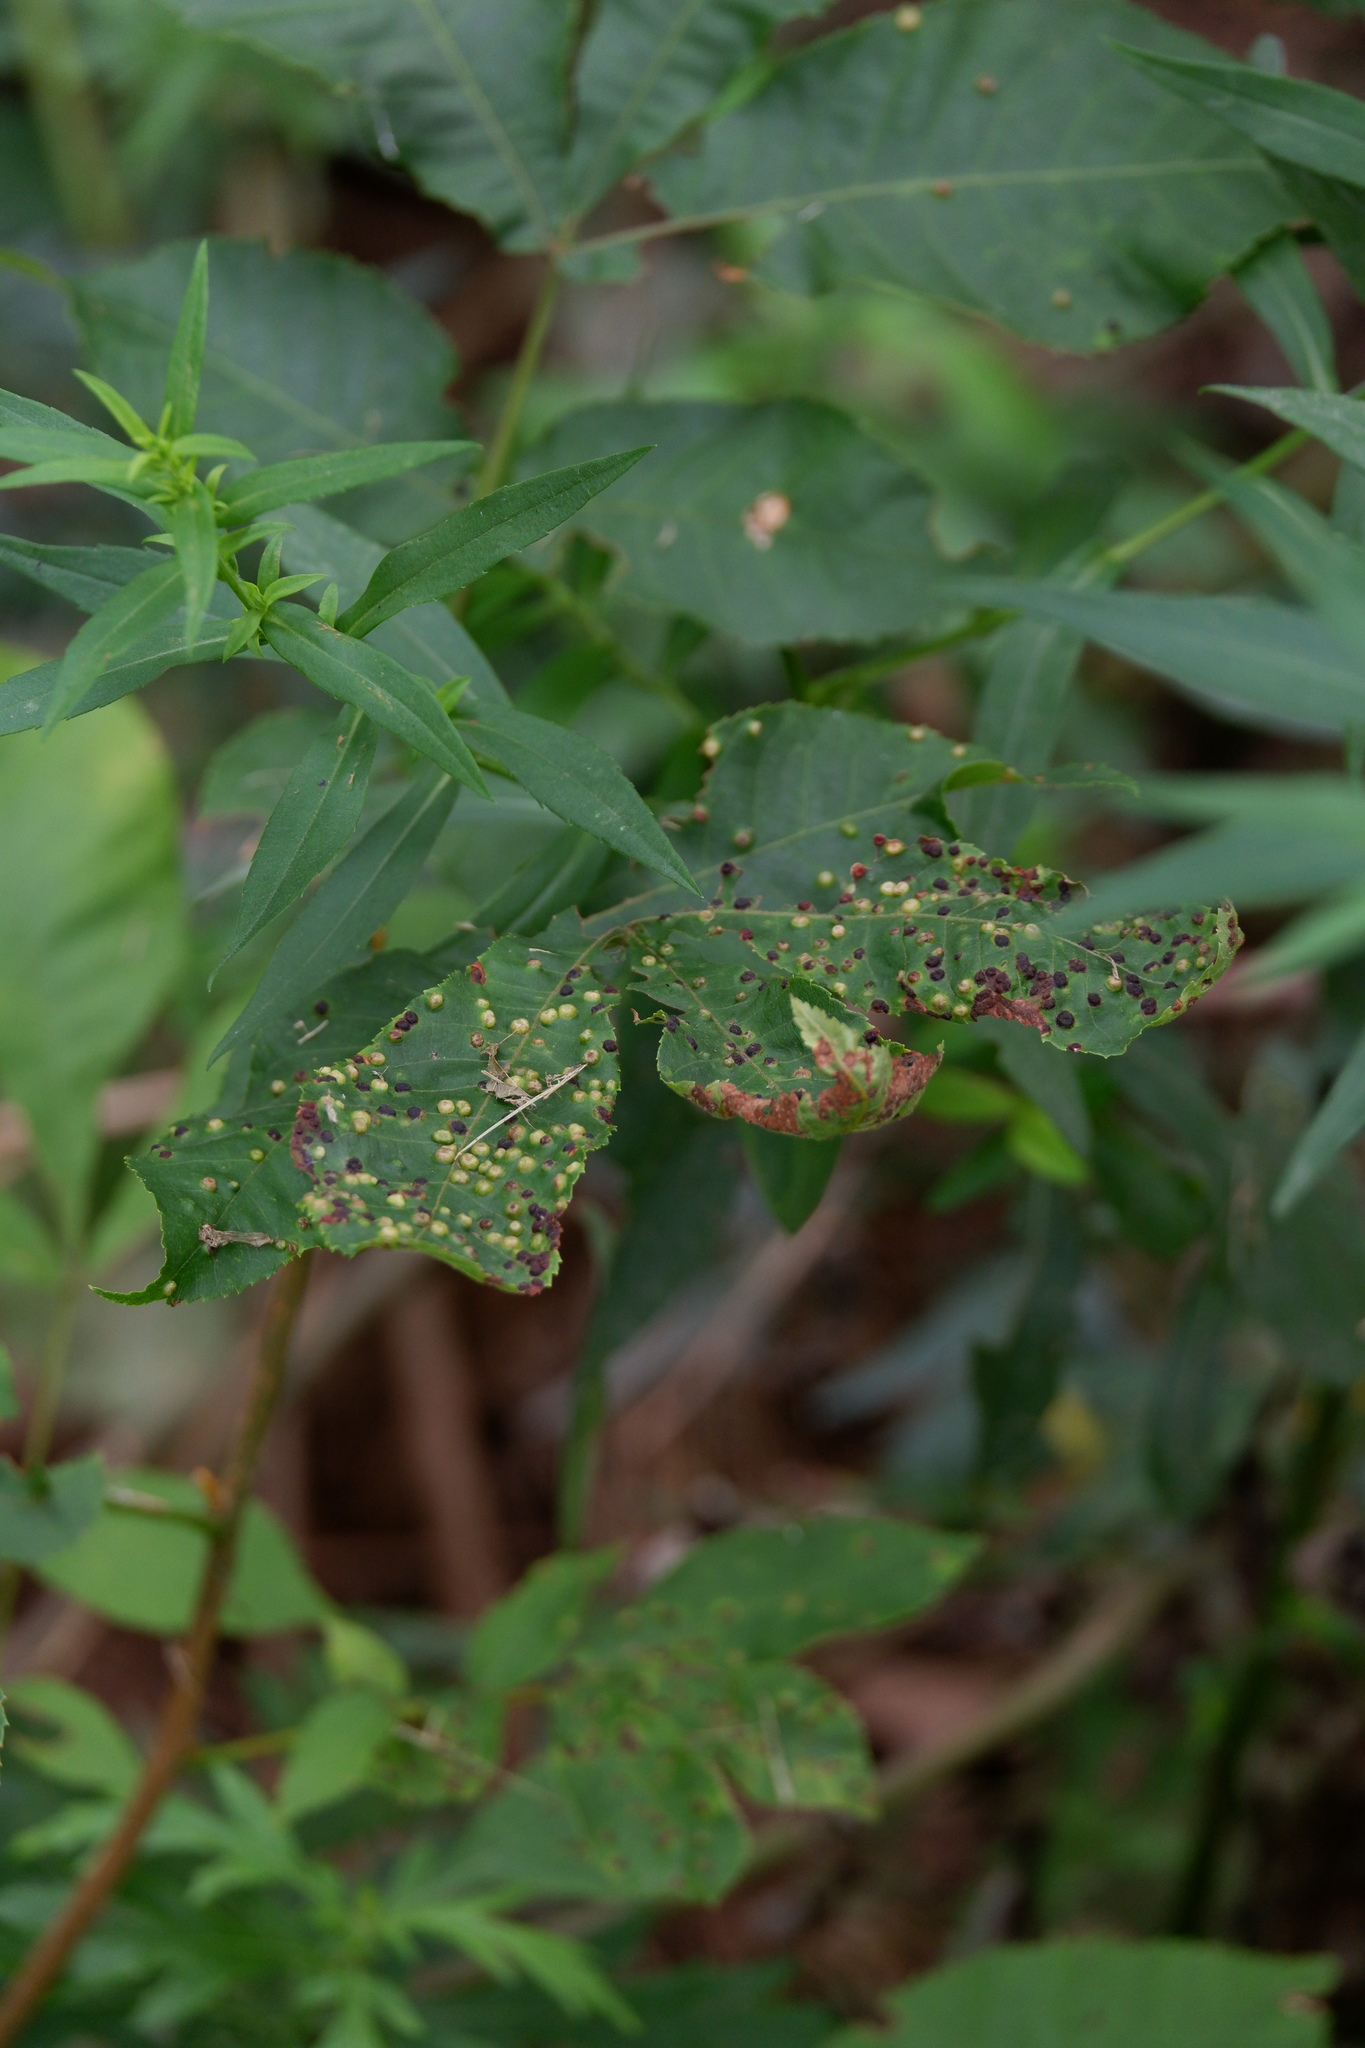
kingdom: Animalia
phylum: Arthropoda
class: Insecta
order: Hemiptera
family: Phylloxeridae
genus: Phylloxera
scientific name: Phylloxera caryae-semen
